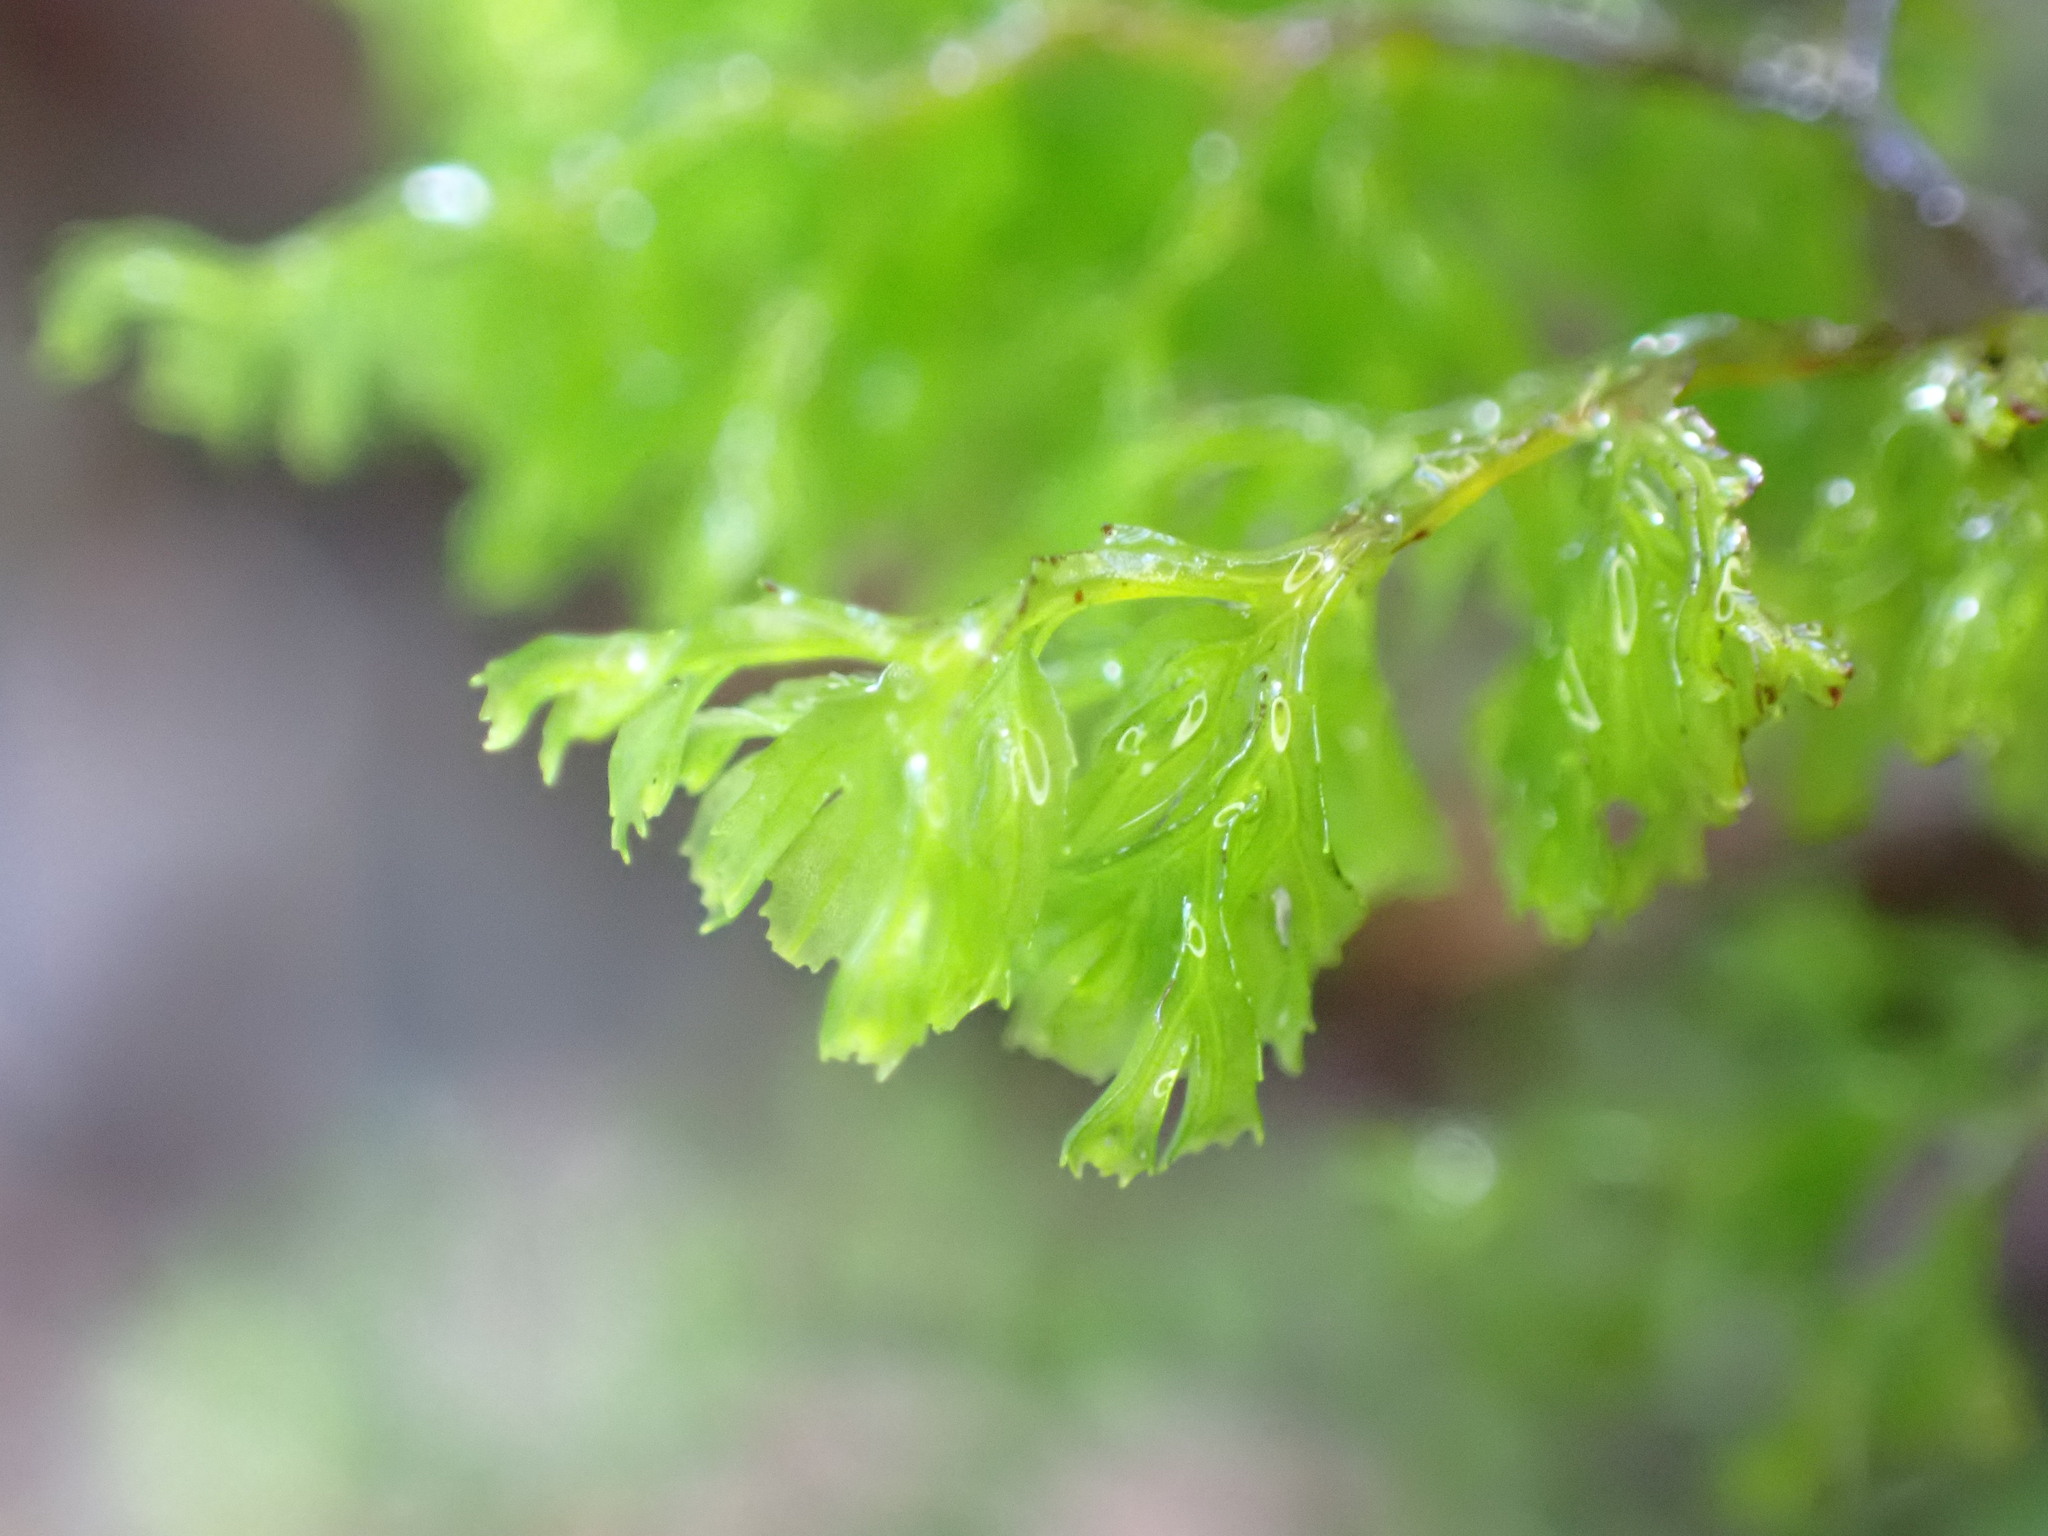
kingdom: Plantae
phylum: Tracheophyta
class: Polypodiopsida
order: Hymenophyllales
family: Hymenophyllaceae
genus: Hymenophyllum
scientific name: Hymenophyllum multifidum
